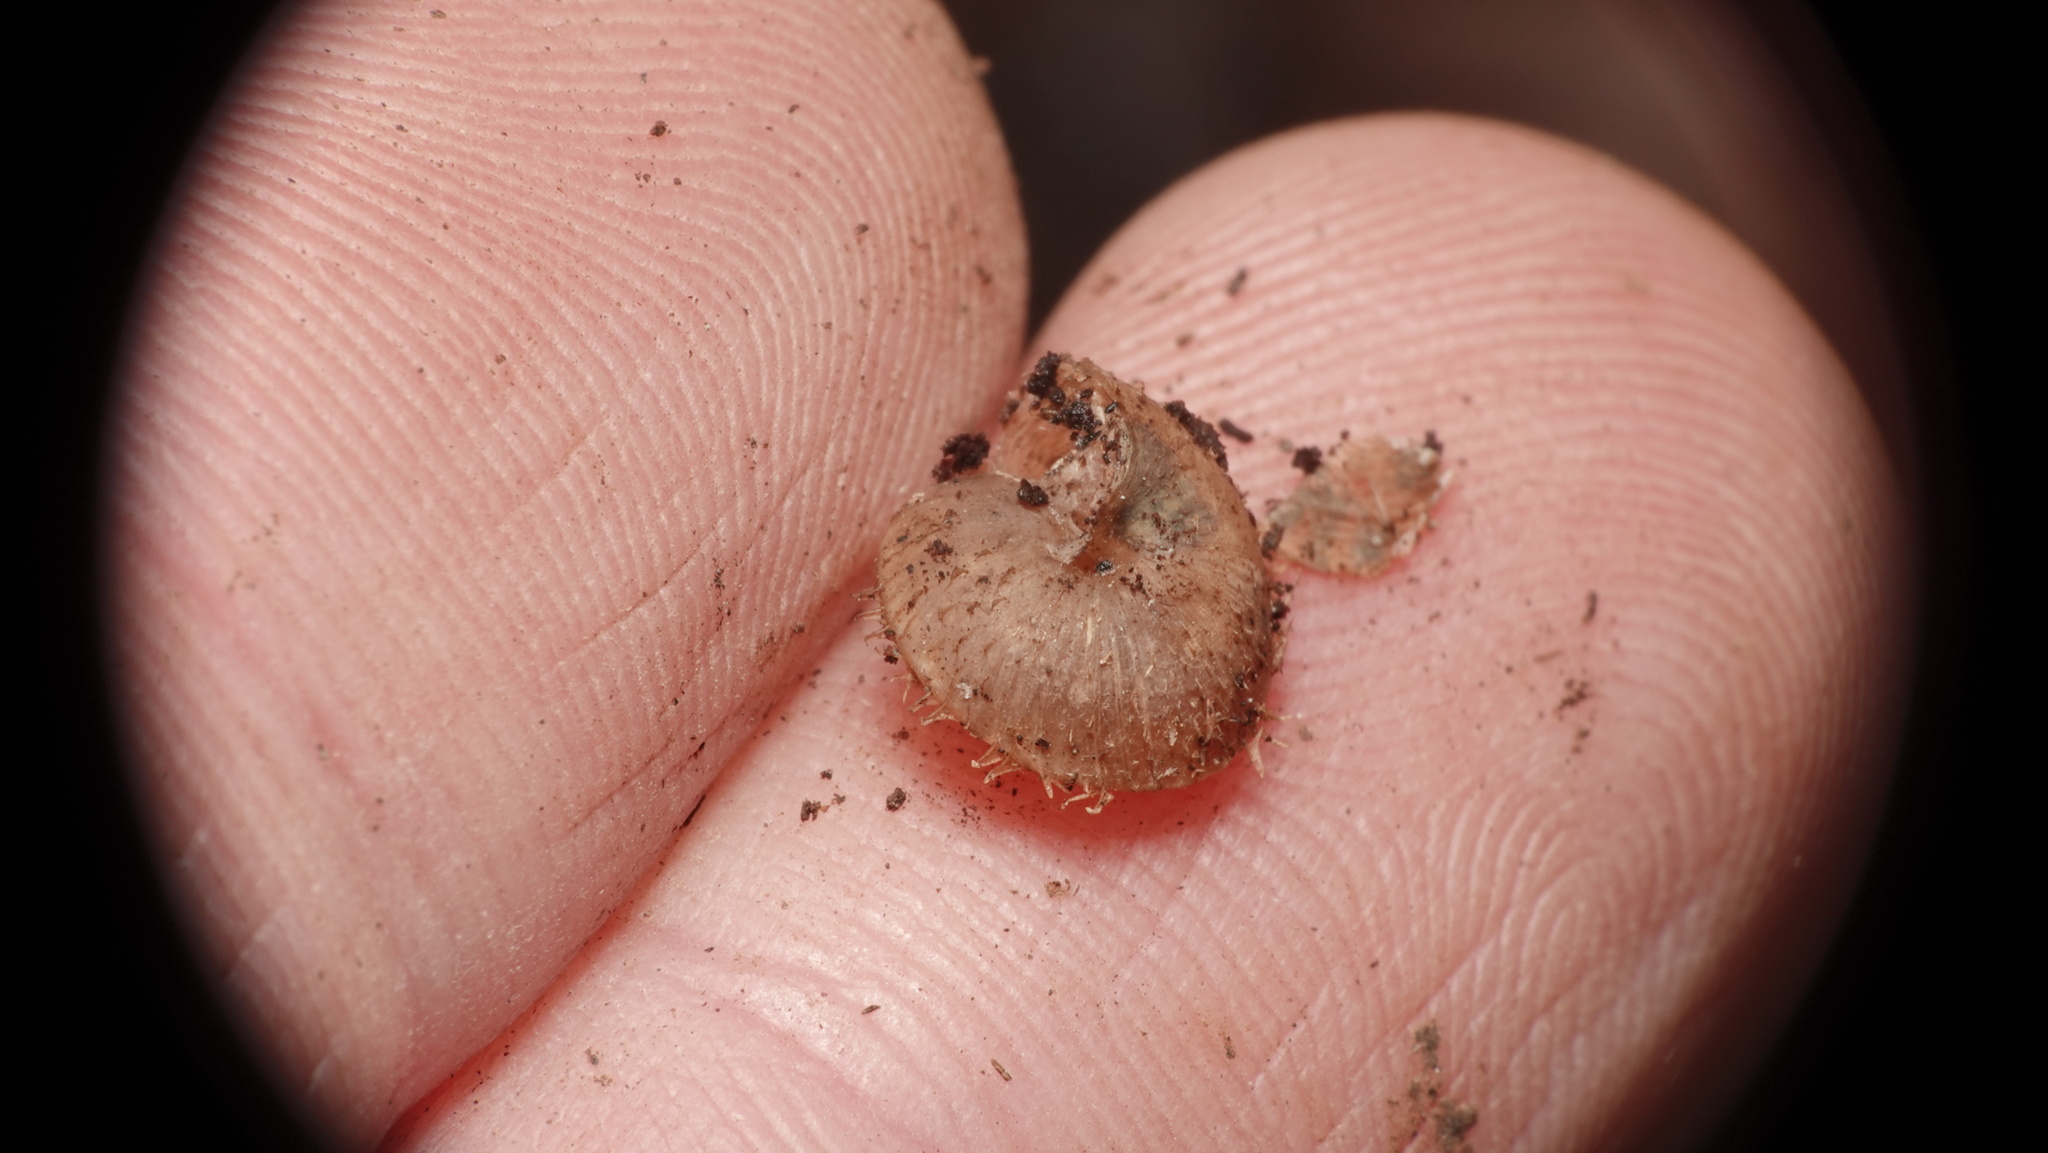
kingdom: Animalia
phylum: Mollusca
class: Gastropoda
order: Stylommatophora
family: Hygromiidae
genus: Ciliella
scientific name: Ciliella ciliata
